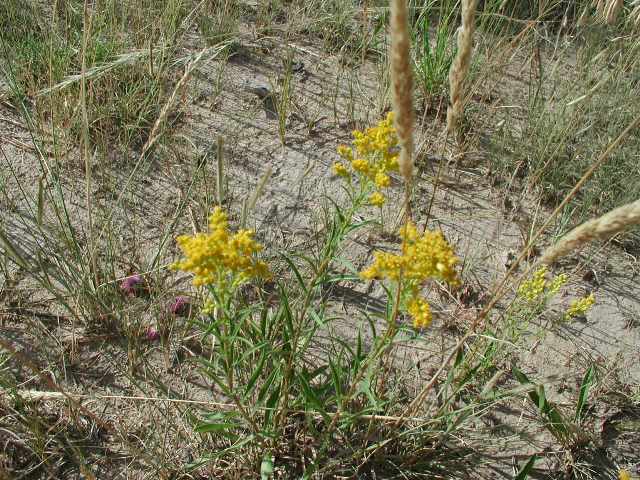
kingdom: Plantae
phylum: Tracheophyta
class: Magnoliopsida
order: Asterales
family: Asteraceae
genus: Solidago
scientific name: Solidago missouriensis
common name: Prairie goldenrod
